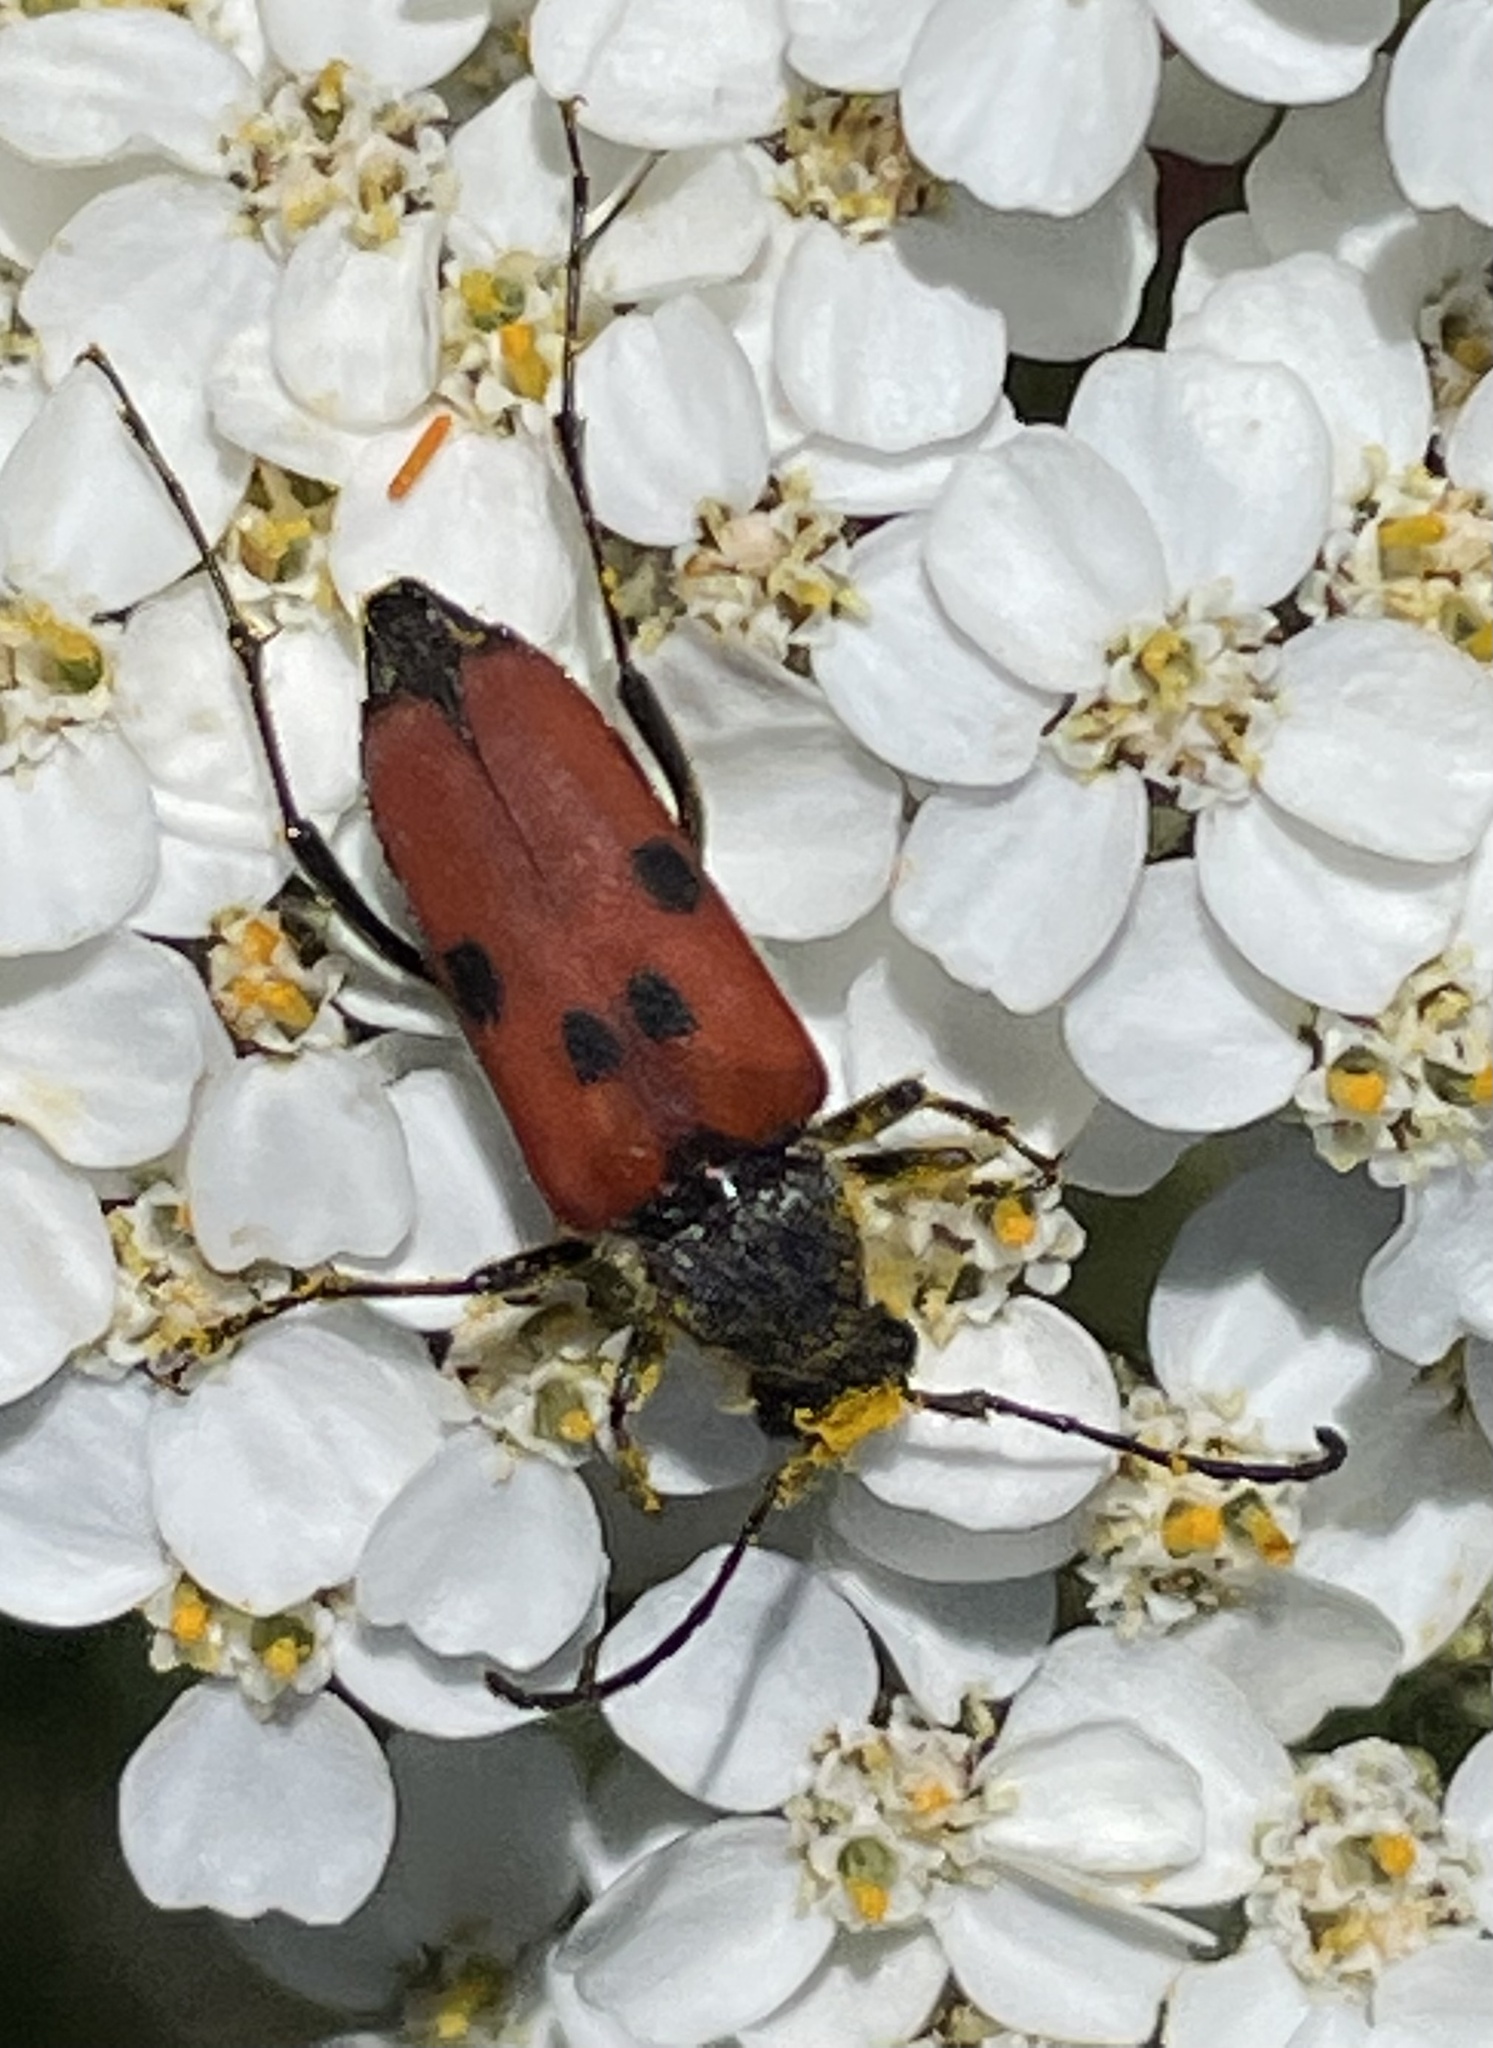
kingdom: Animalia
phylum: Arthropoda
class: Insecta
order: Coleoptera
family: Cerambycidae
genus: Anastrangalia
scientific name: Anastrangalia laetifica
